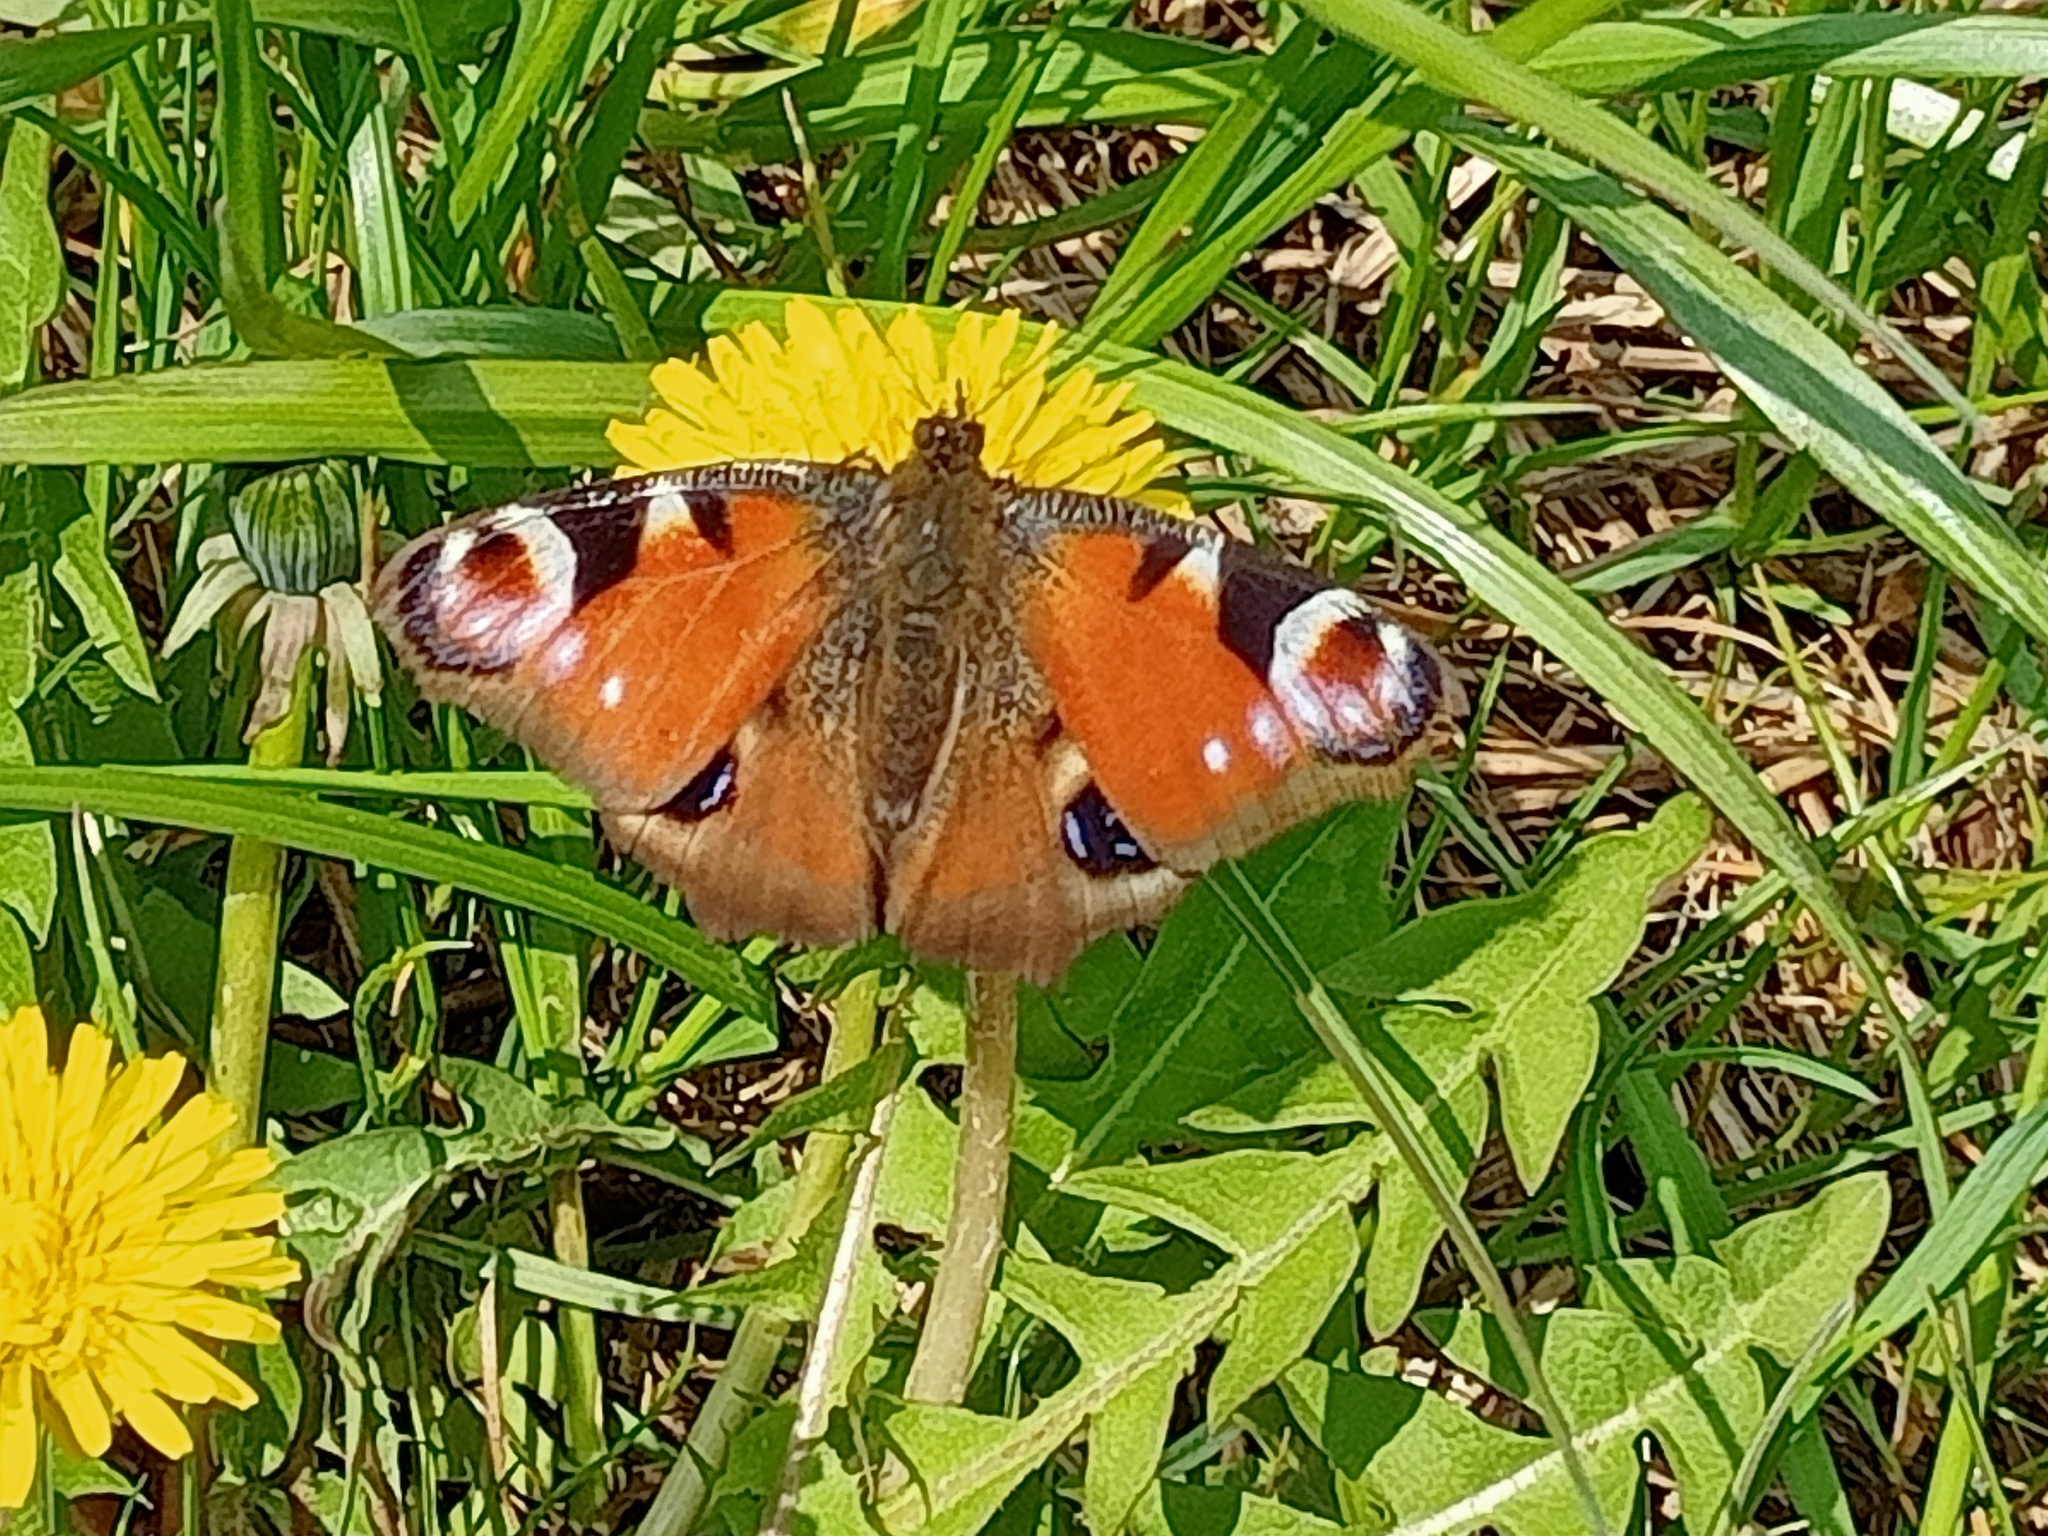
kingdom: Animalia
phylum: Arthropoda
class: Insecta
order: Lepidoptera
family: Nymphalidae
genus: Aglais
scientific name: Aglais io
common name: Peacock
